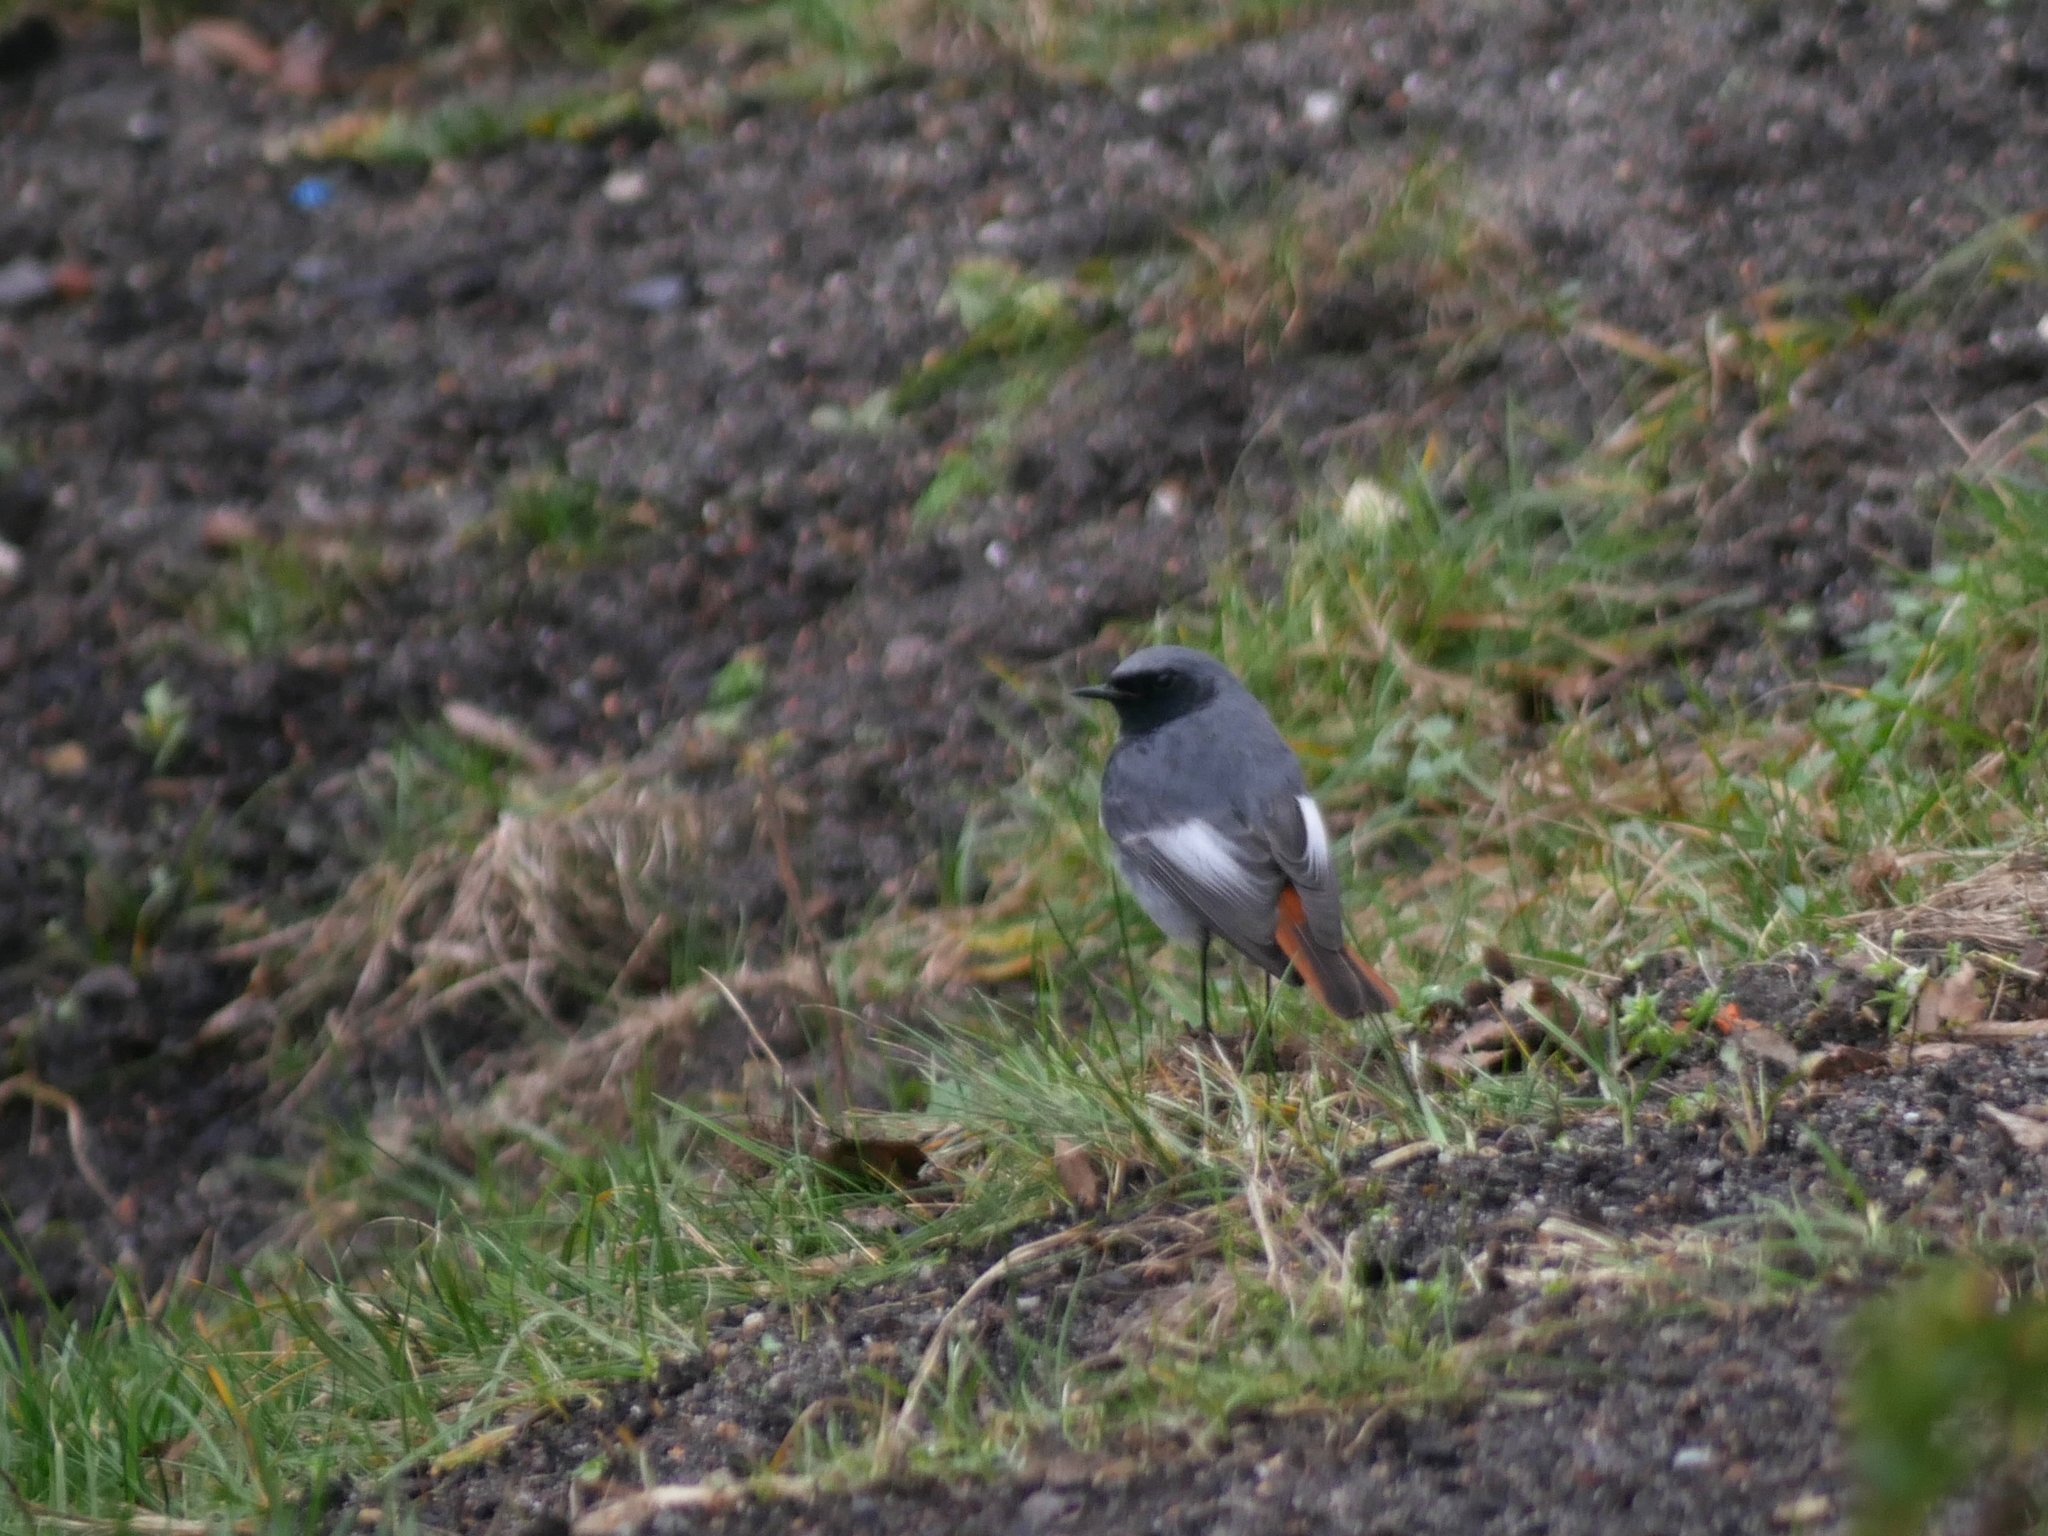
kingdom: Animalia
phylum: Chordata
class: Aves
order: Passeriformes
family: Muscicapidae
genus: Phoenicurus
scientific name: Phoenicurus ochruros
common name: Black redstart
